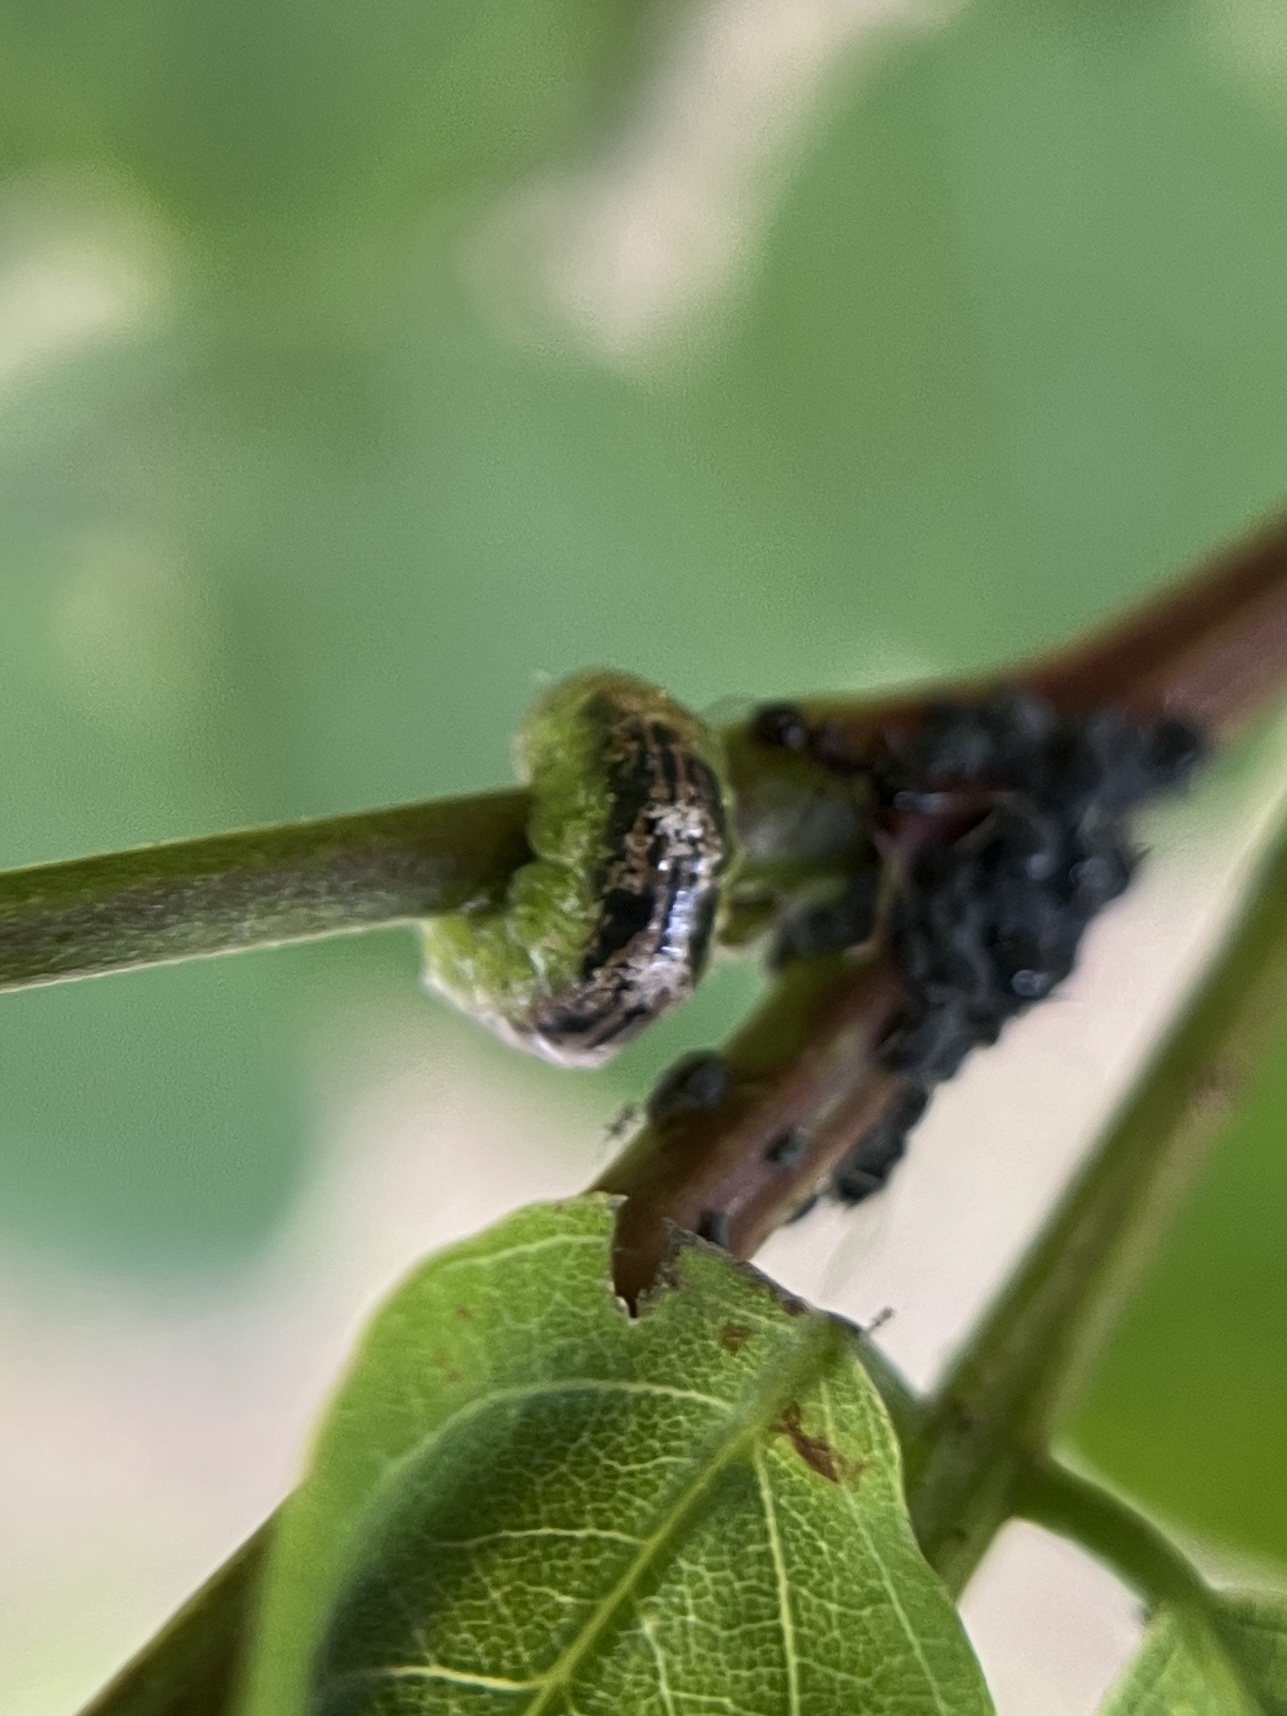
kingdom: Animalia
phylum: Arthropoda
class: Insecta
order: Diptera
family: Syrphidae
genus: Eupeodes
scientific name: Eupeodes pomus
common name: Short-tailed aphideater
